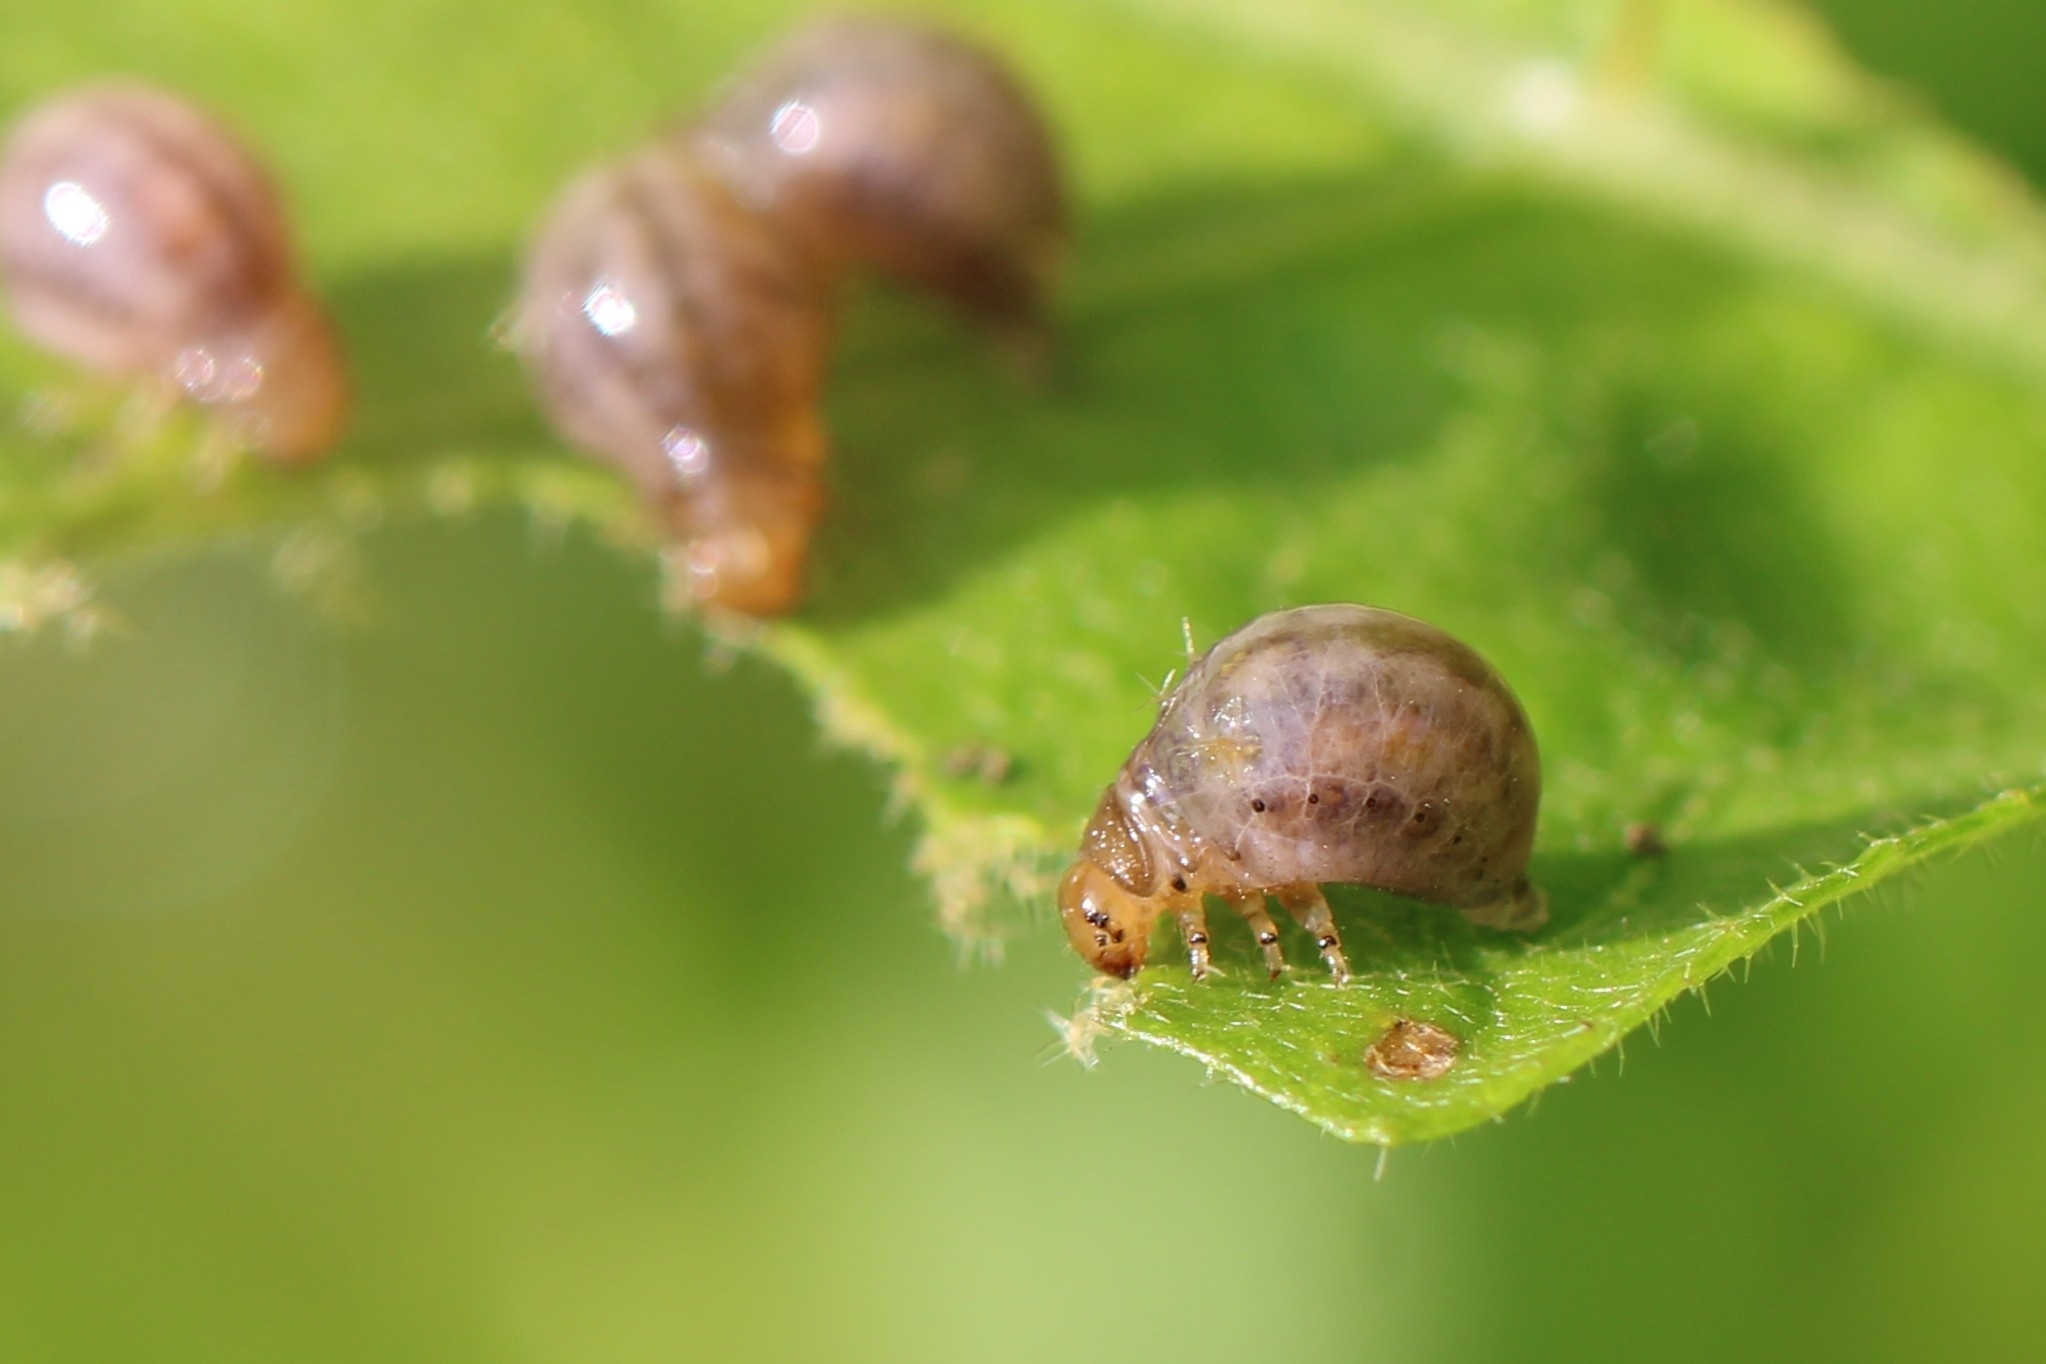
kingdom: Animalia
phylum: Arthropoda
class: Insecta
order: Coleoptera
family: Chrysomelidae
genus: Leptinotarsa
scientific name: Leptinotarsa juncta
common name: False potato beetle
